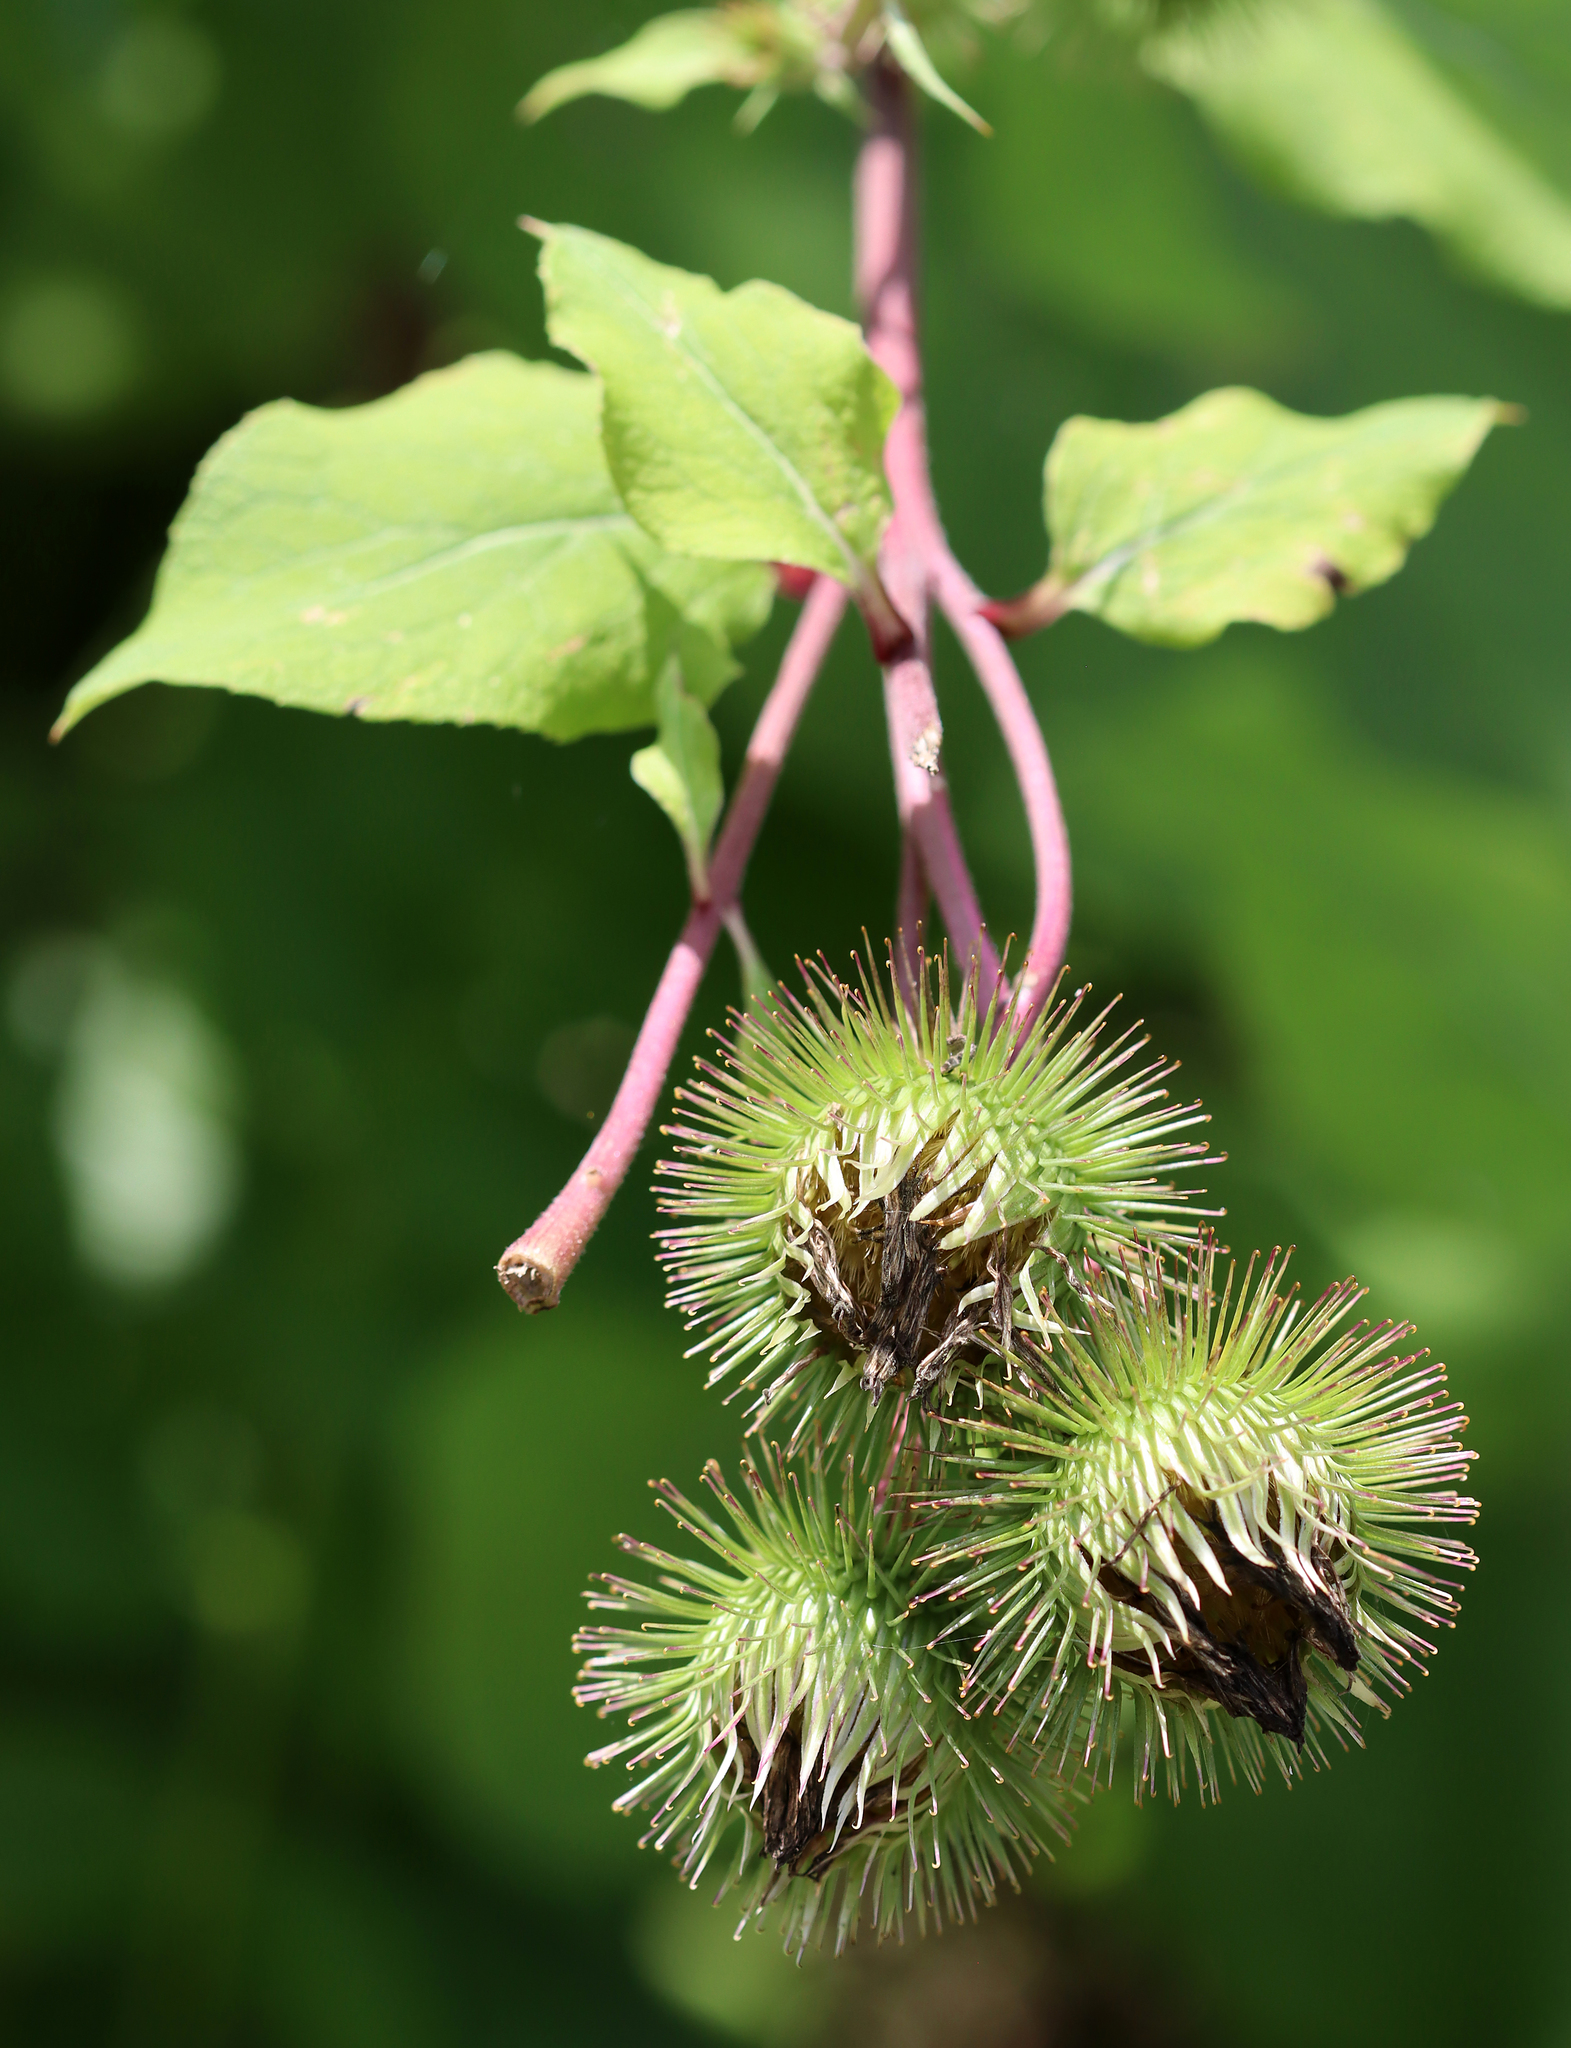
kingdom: Plantae
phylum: Tracheophyta
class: Magnoliopsida
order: Asterales
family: Asteraceae
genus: Arctium
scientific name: Arctium lappa
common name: Greater burdock
